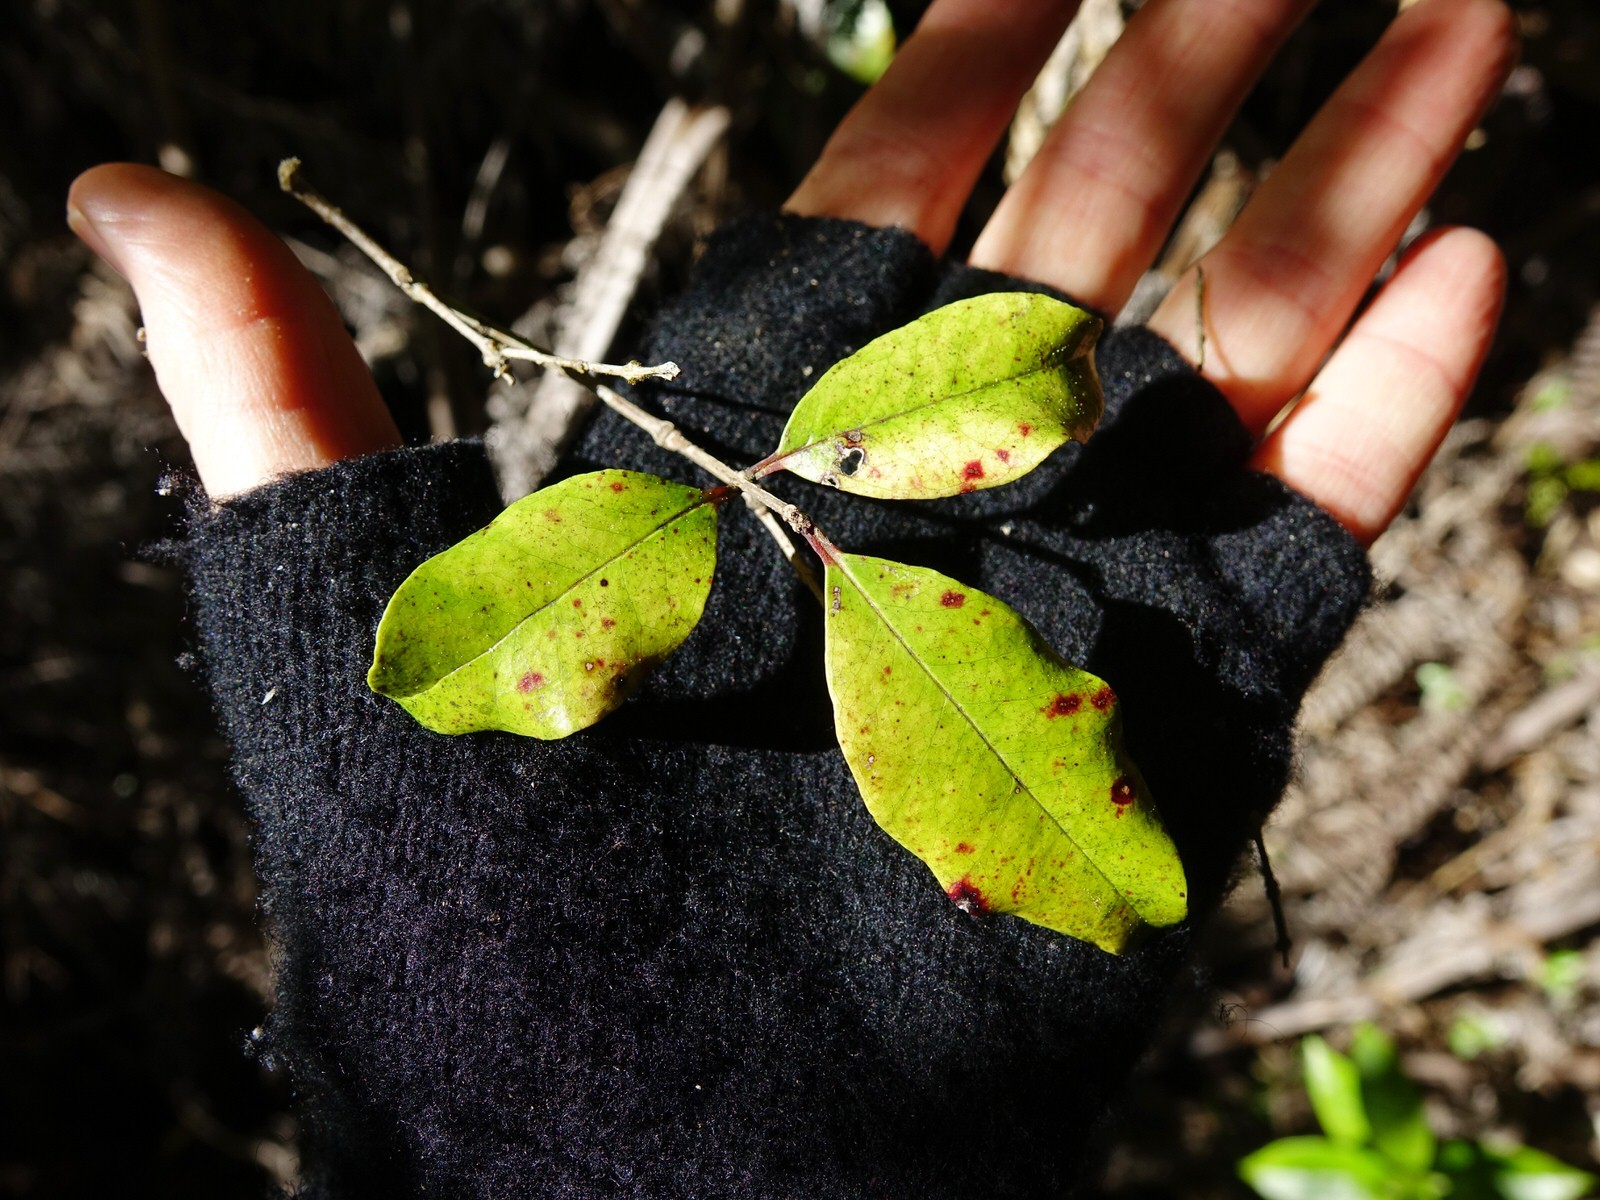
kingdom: Plantae
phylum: Tracheophyta
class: Magnoliopsida
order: Myrtales
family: Myrtaceae
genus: Syzygium
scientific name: Syzygium maire
